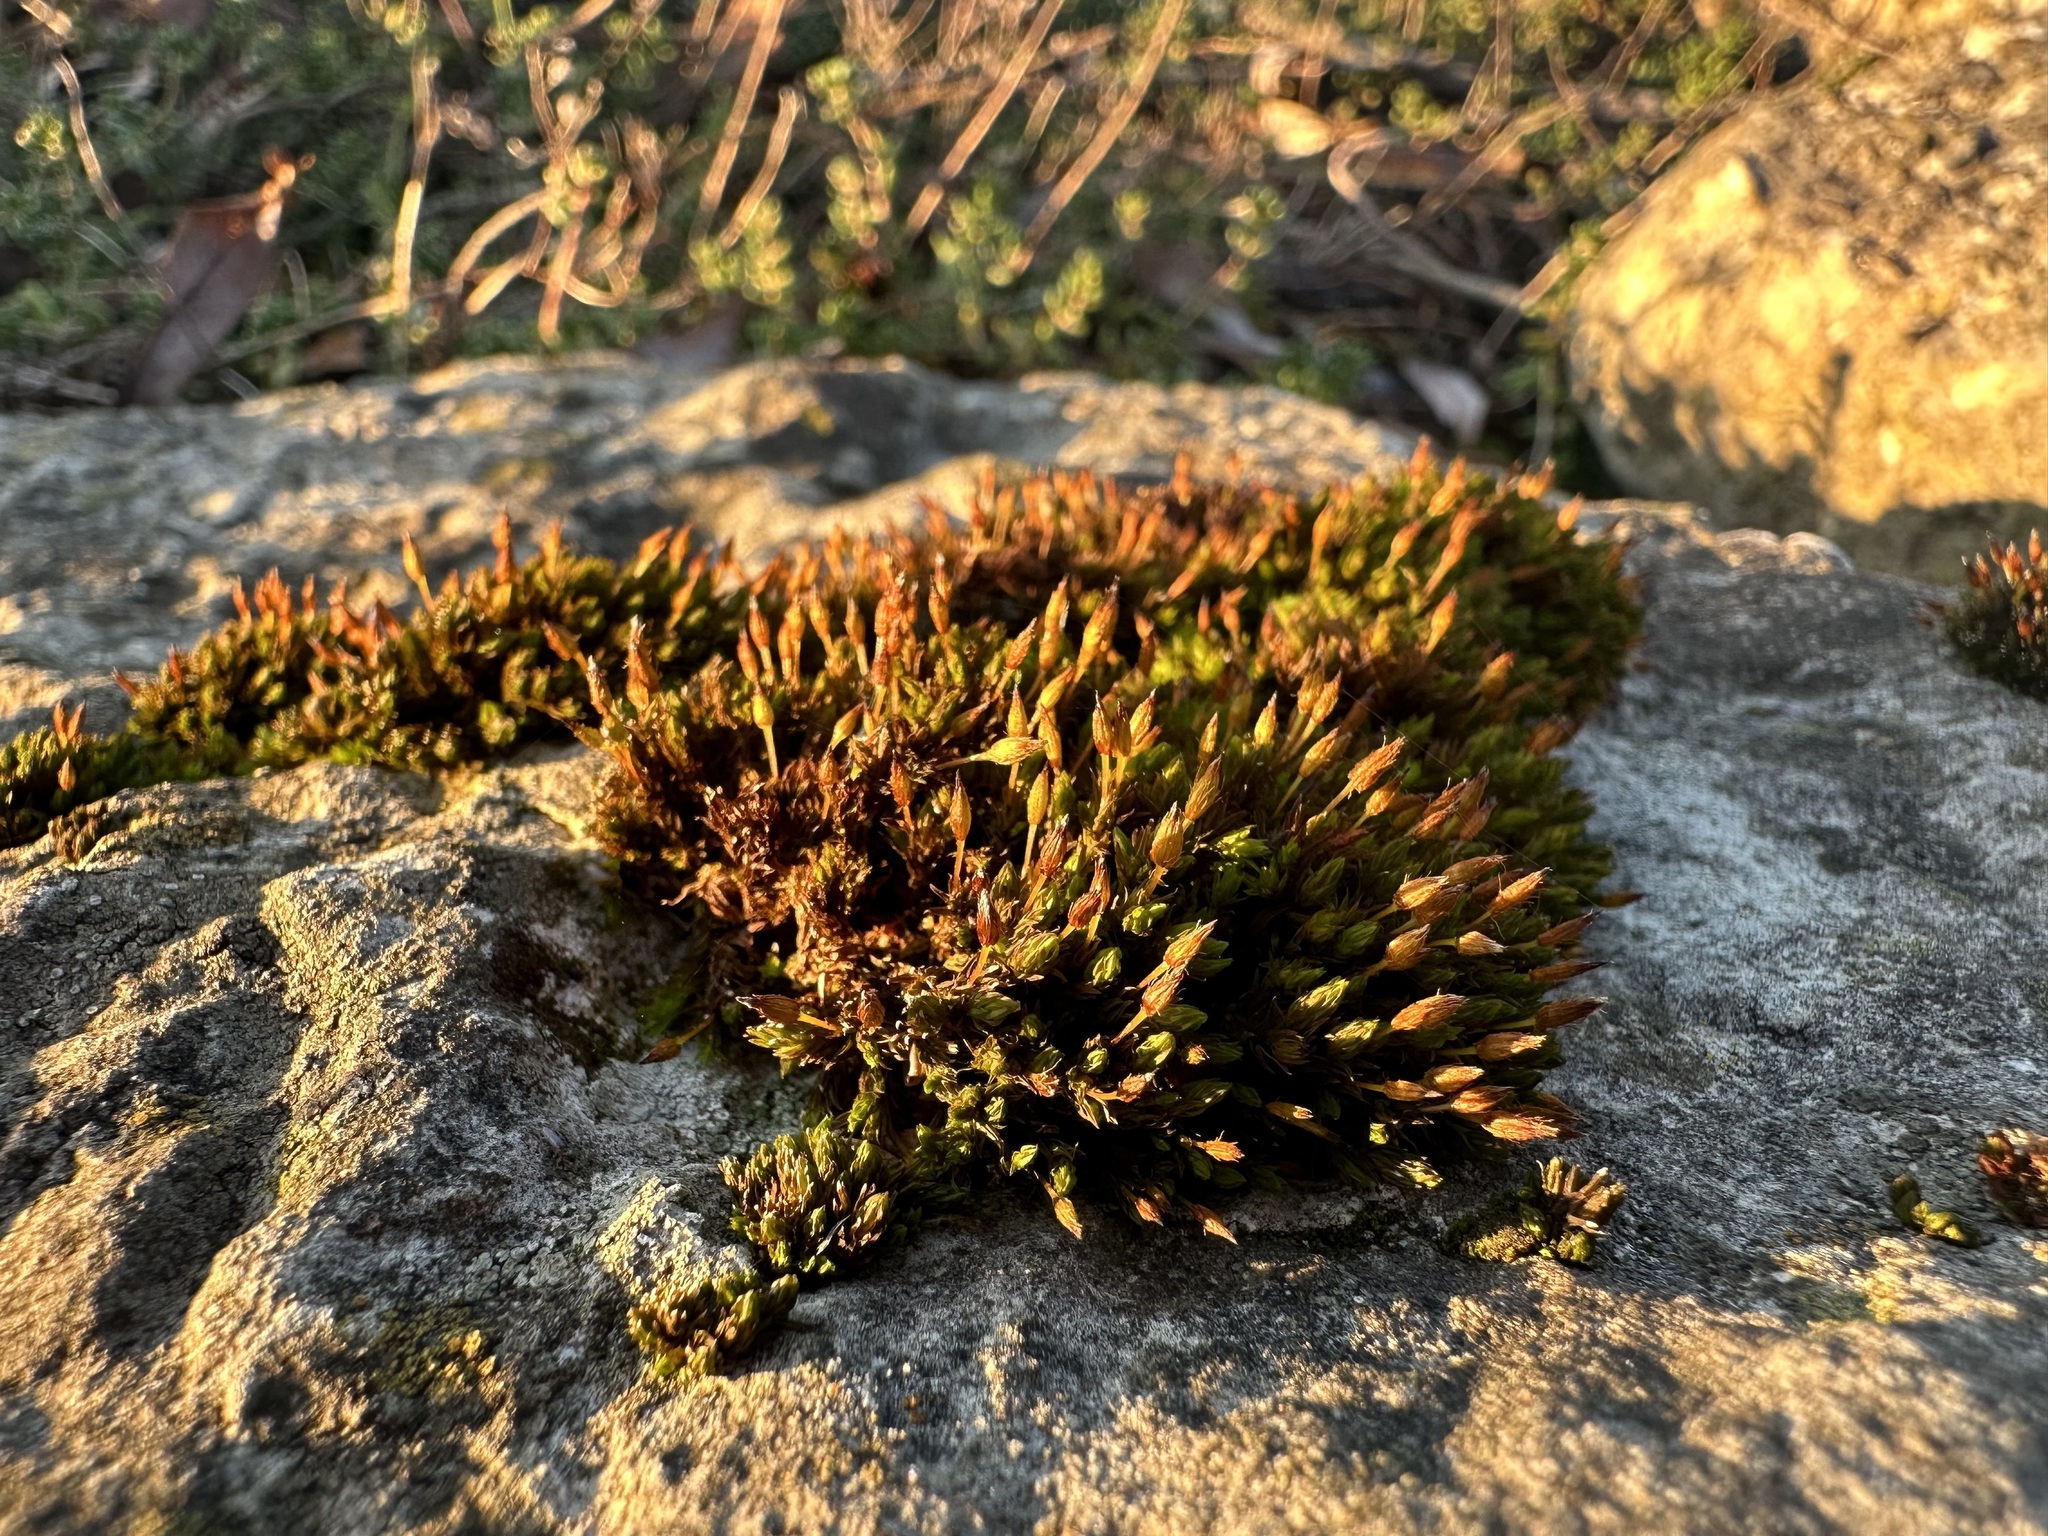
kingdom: Plantae
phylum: Bryophyta
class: Bryopsida
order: Orthotrichales
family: Orthotrichaceae
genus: Orthotrichum
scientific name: Orthotrichum anomalum
